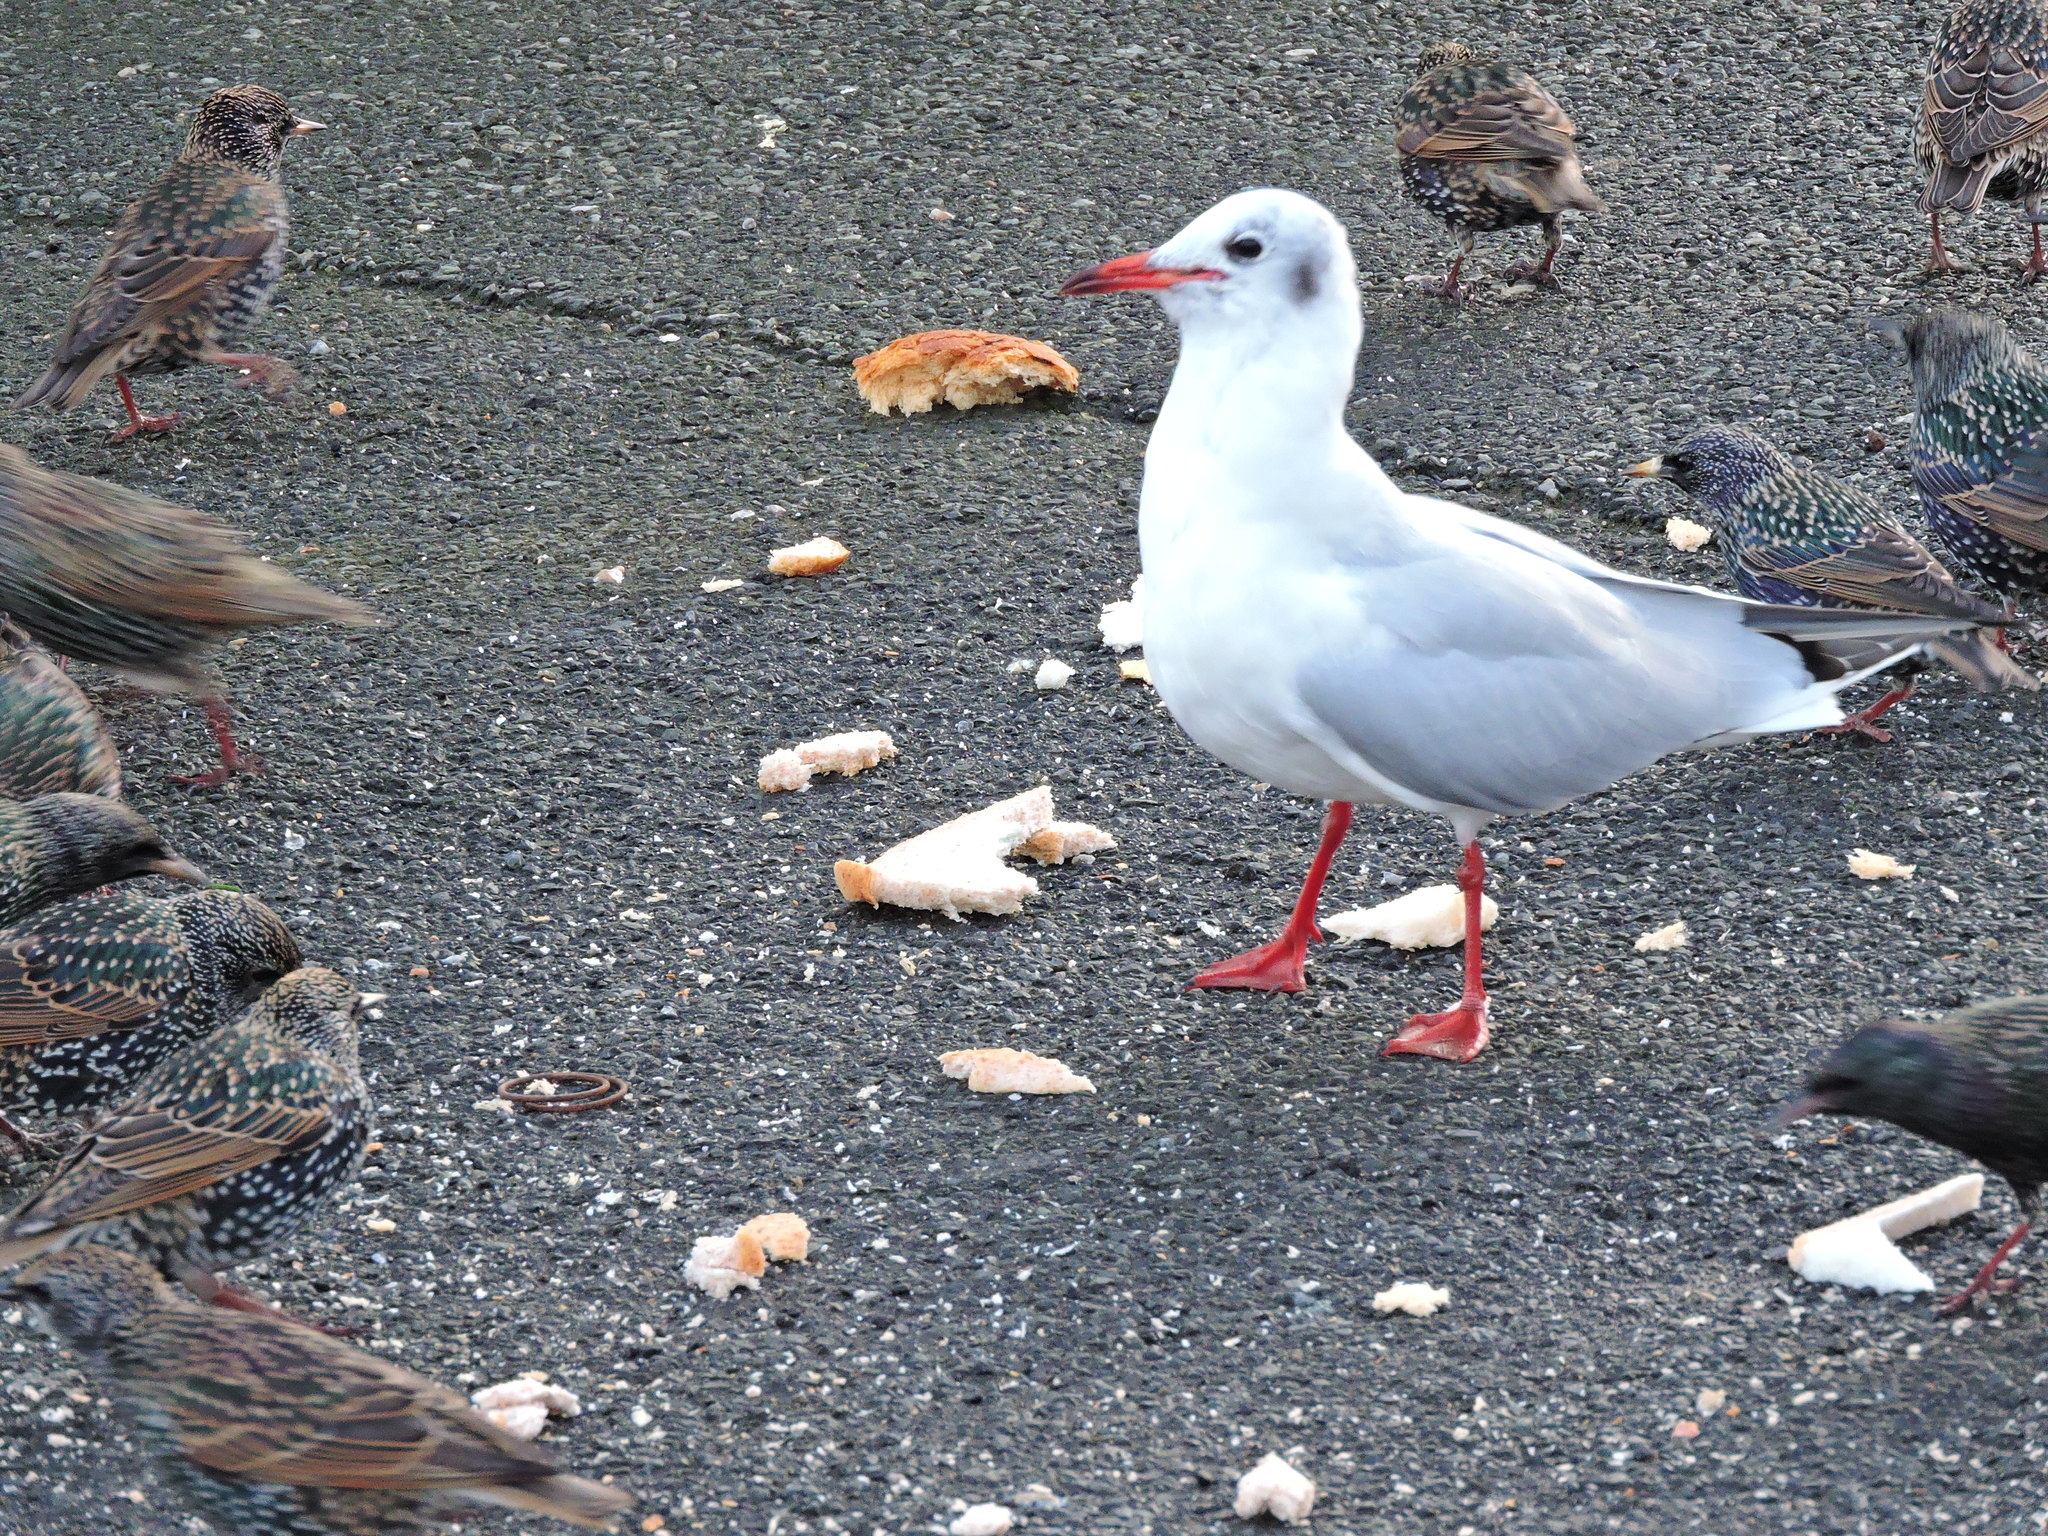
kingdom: Animalia
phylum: Chordata
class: Aves
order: Charadriiformes
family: Laridae
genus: Chroicocephalus
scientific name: Chroicocephalus ridibundus
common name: Black-headed gull
